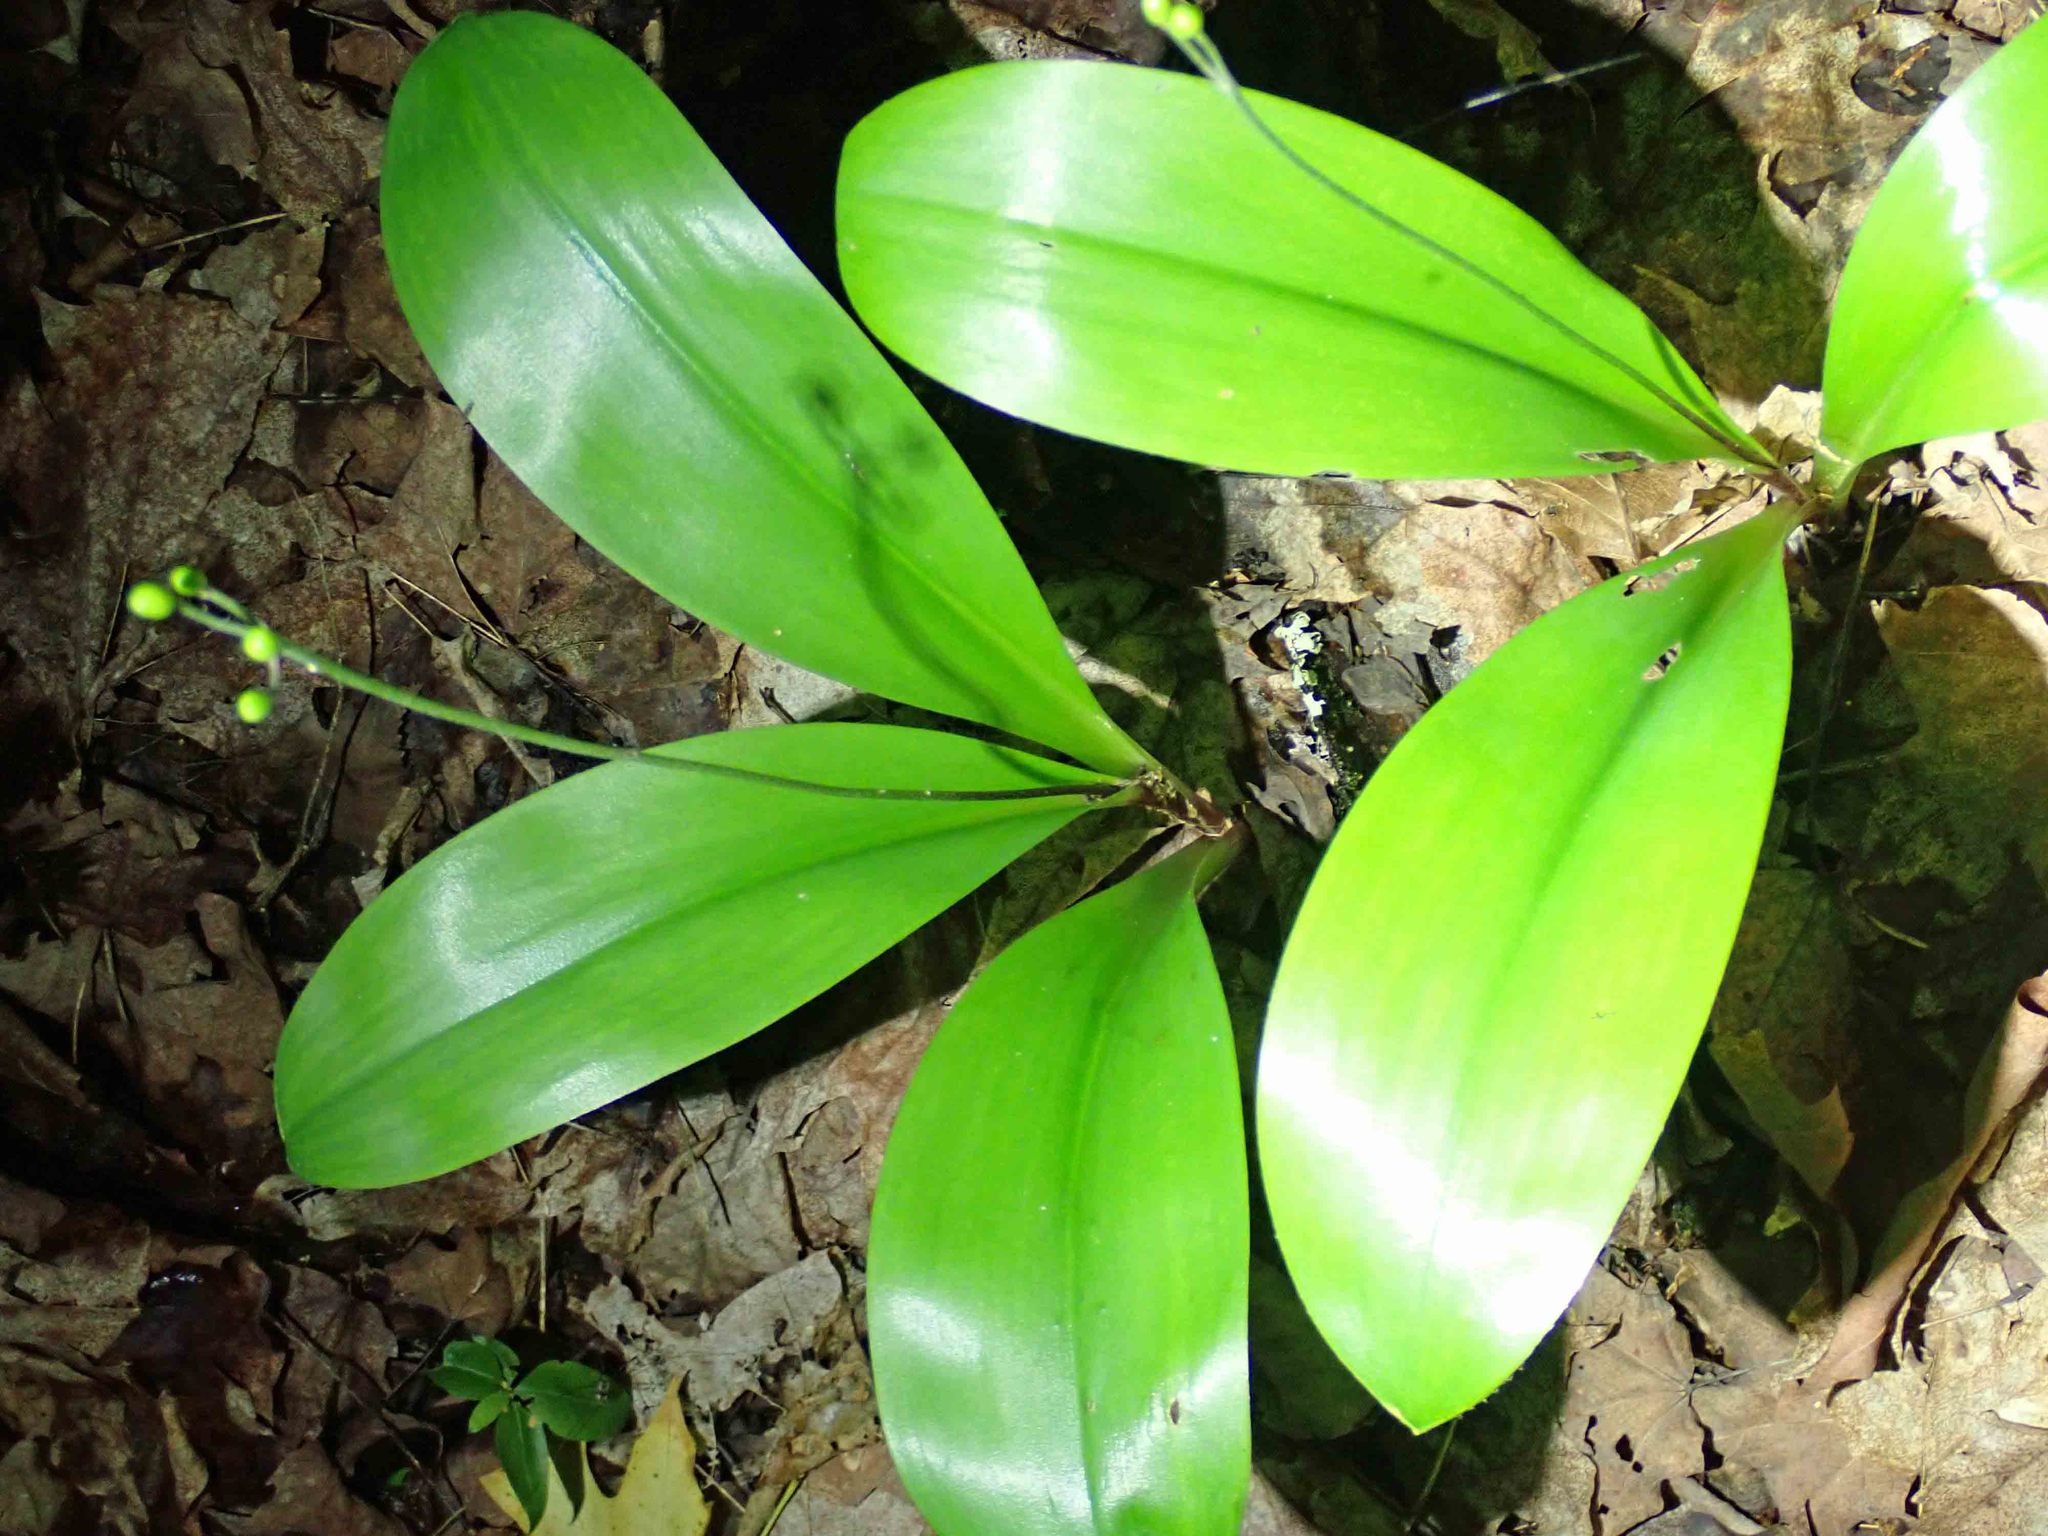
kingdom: Plantae
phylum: Tracheophyta
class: Liliopsida
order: Liliales
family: Liliaceae
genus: Clintonia
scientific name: Clintonia borealis
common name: Yellow clintonia
